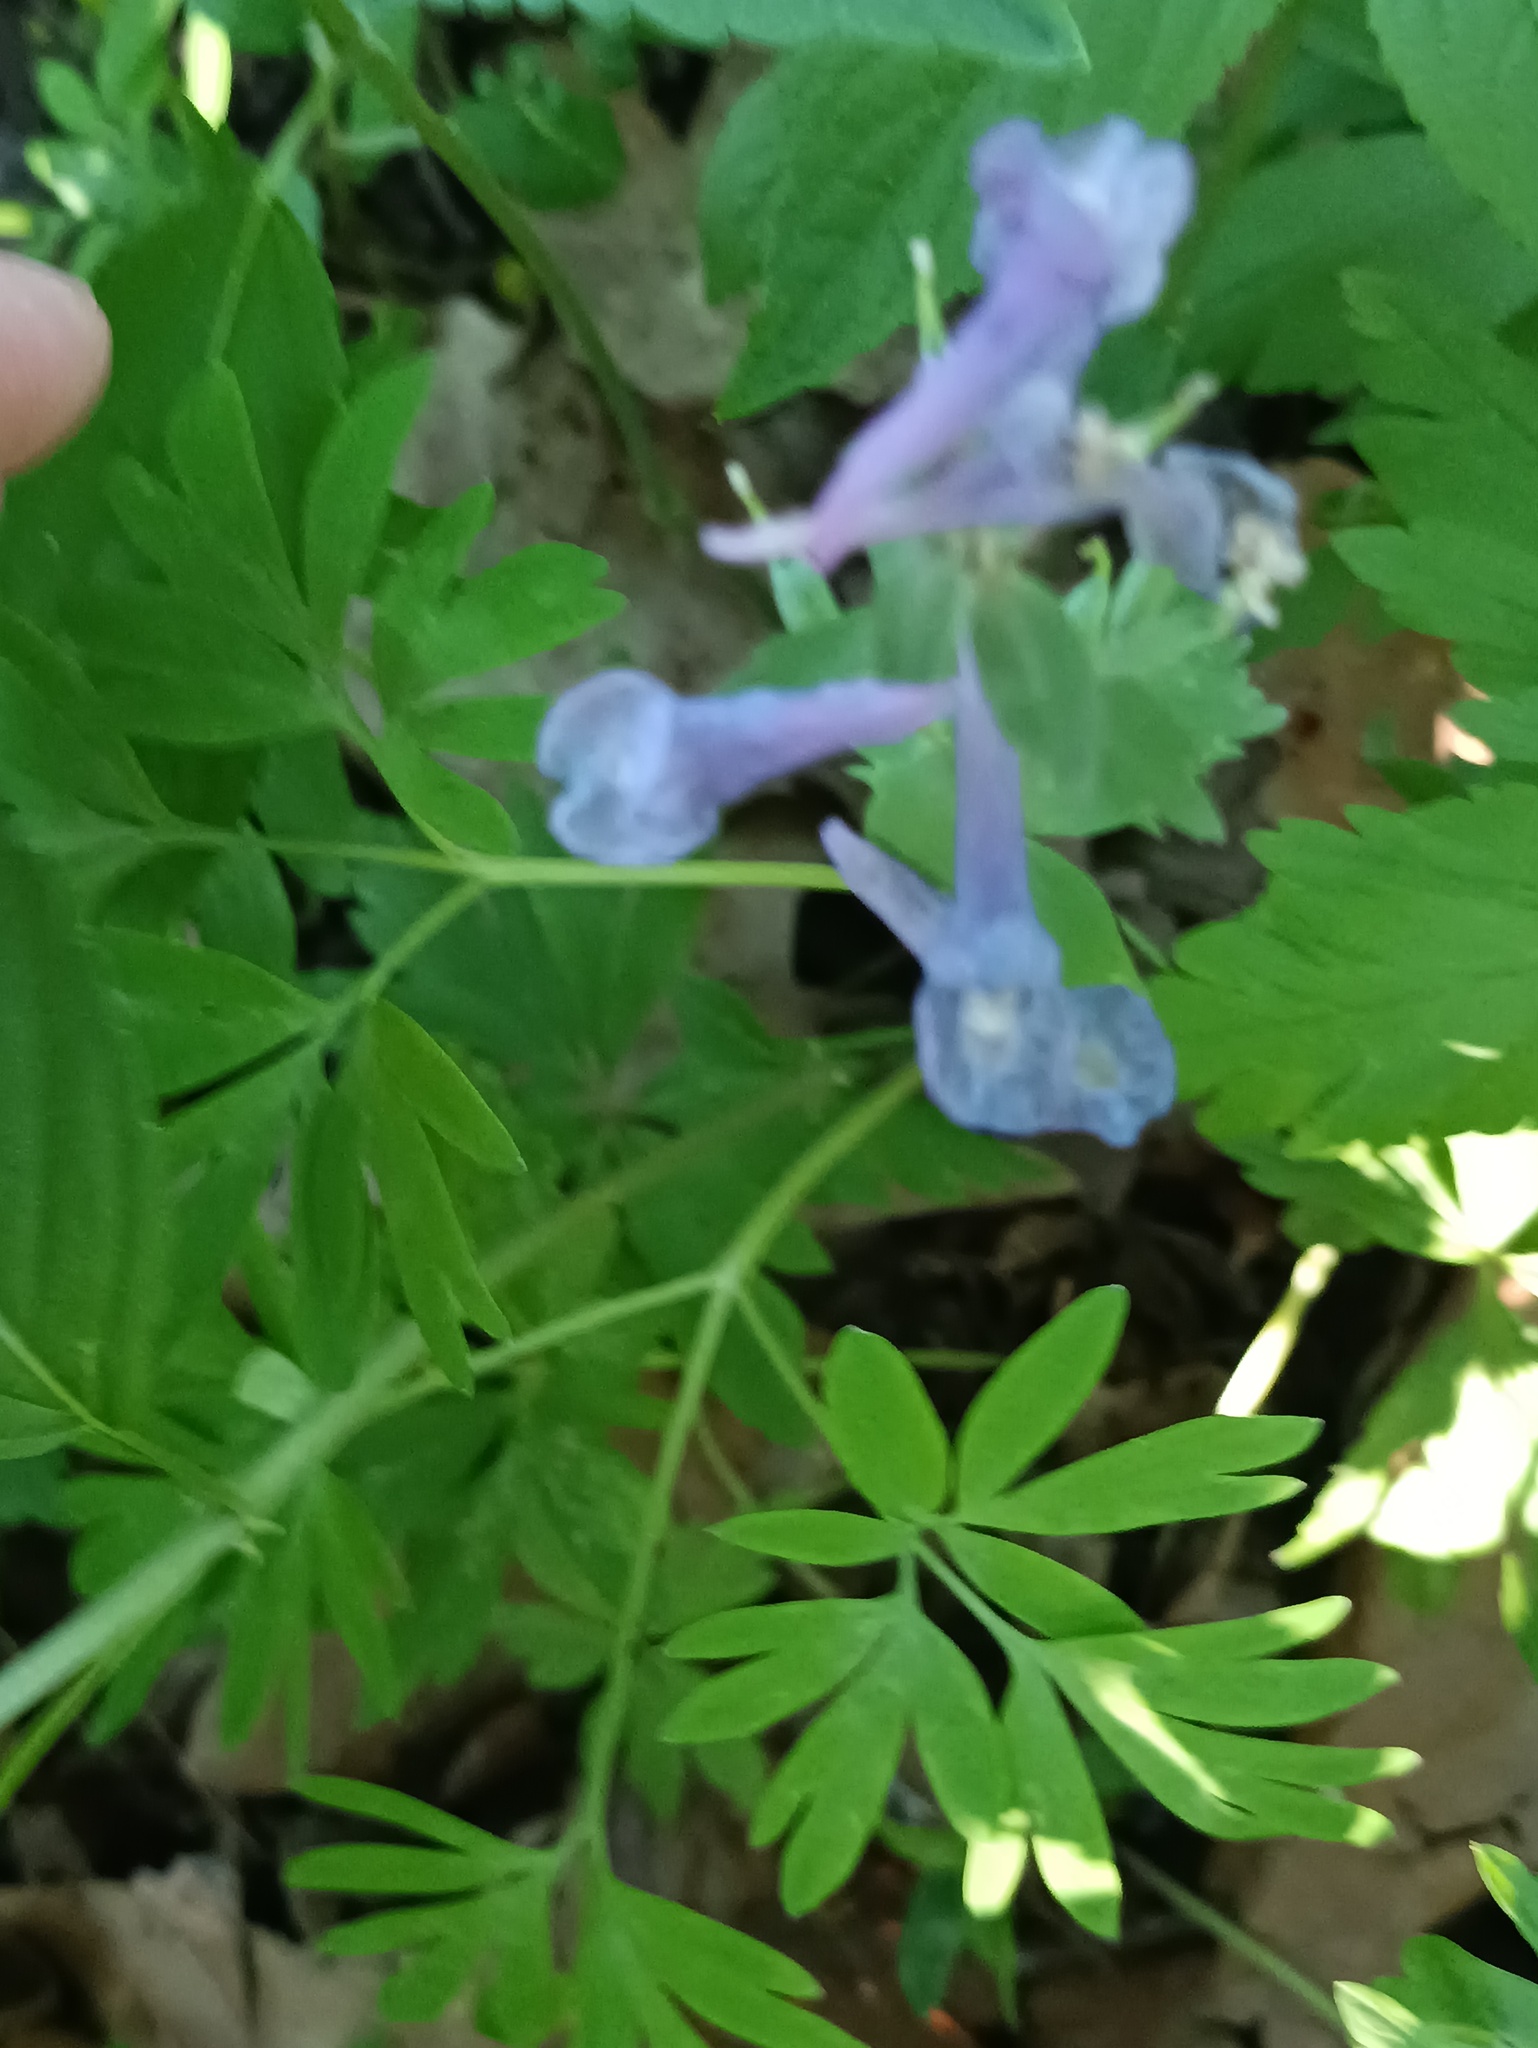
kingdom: Plantae
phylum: Tracheophyta
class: Magnoliopsida
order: Ranunculales
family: Papaveraceae
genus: Corydalis
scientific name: Corydalis solida
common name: Bird-in-a-bush
